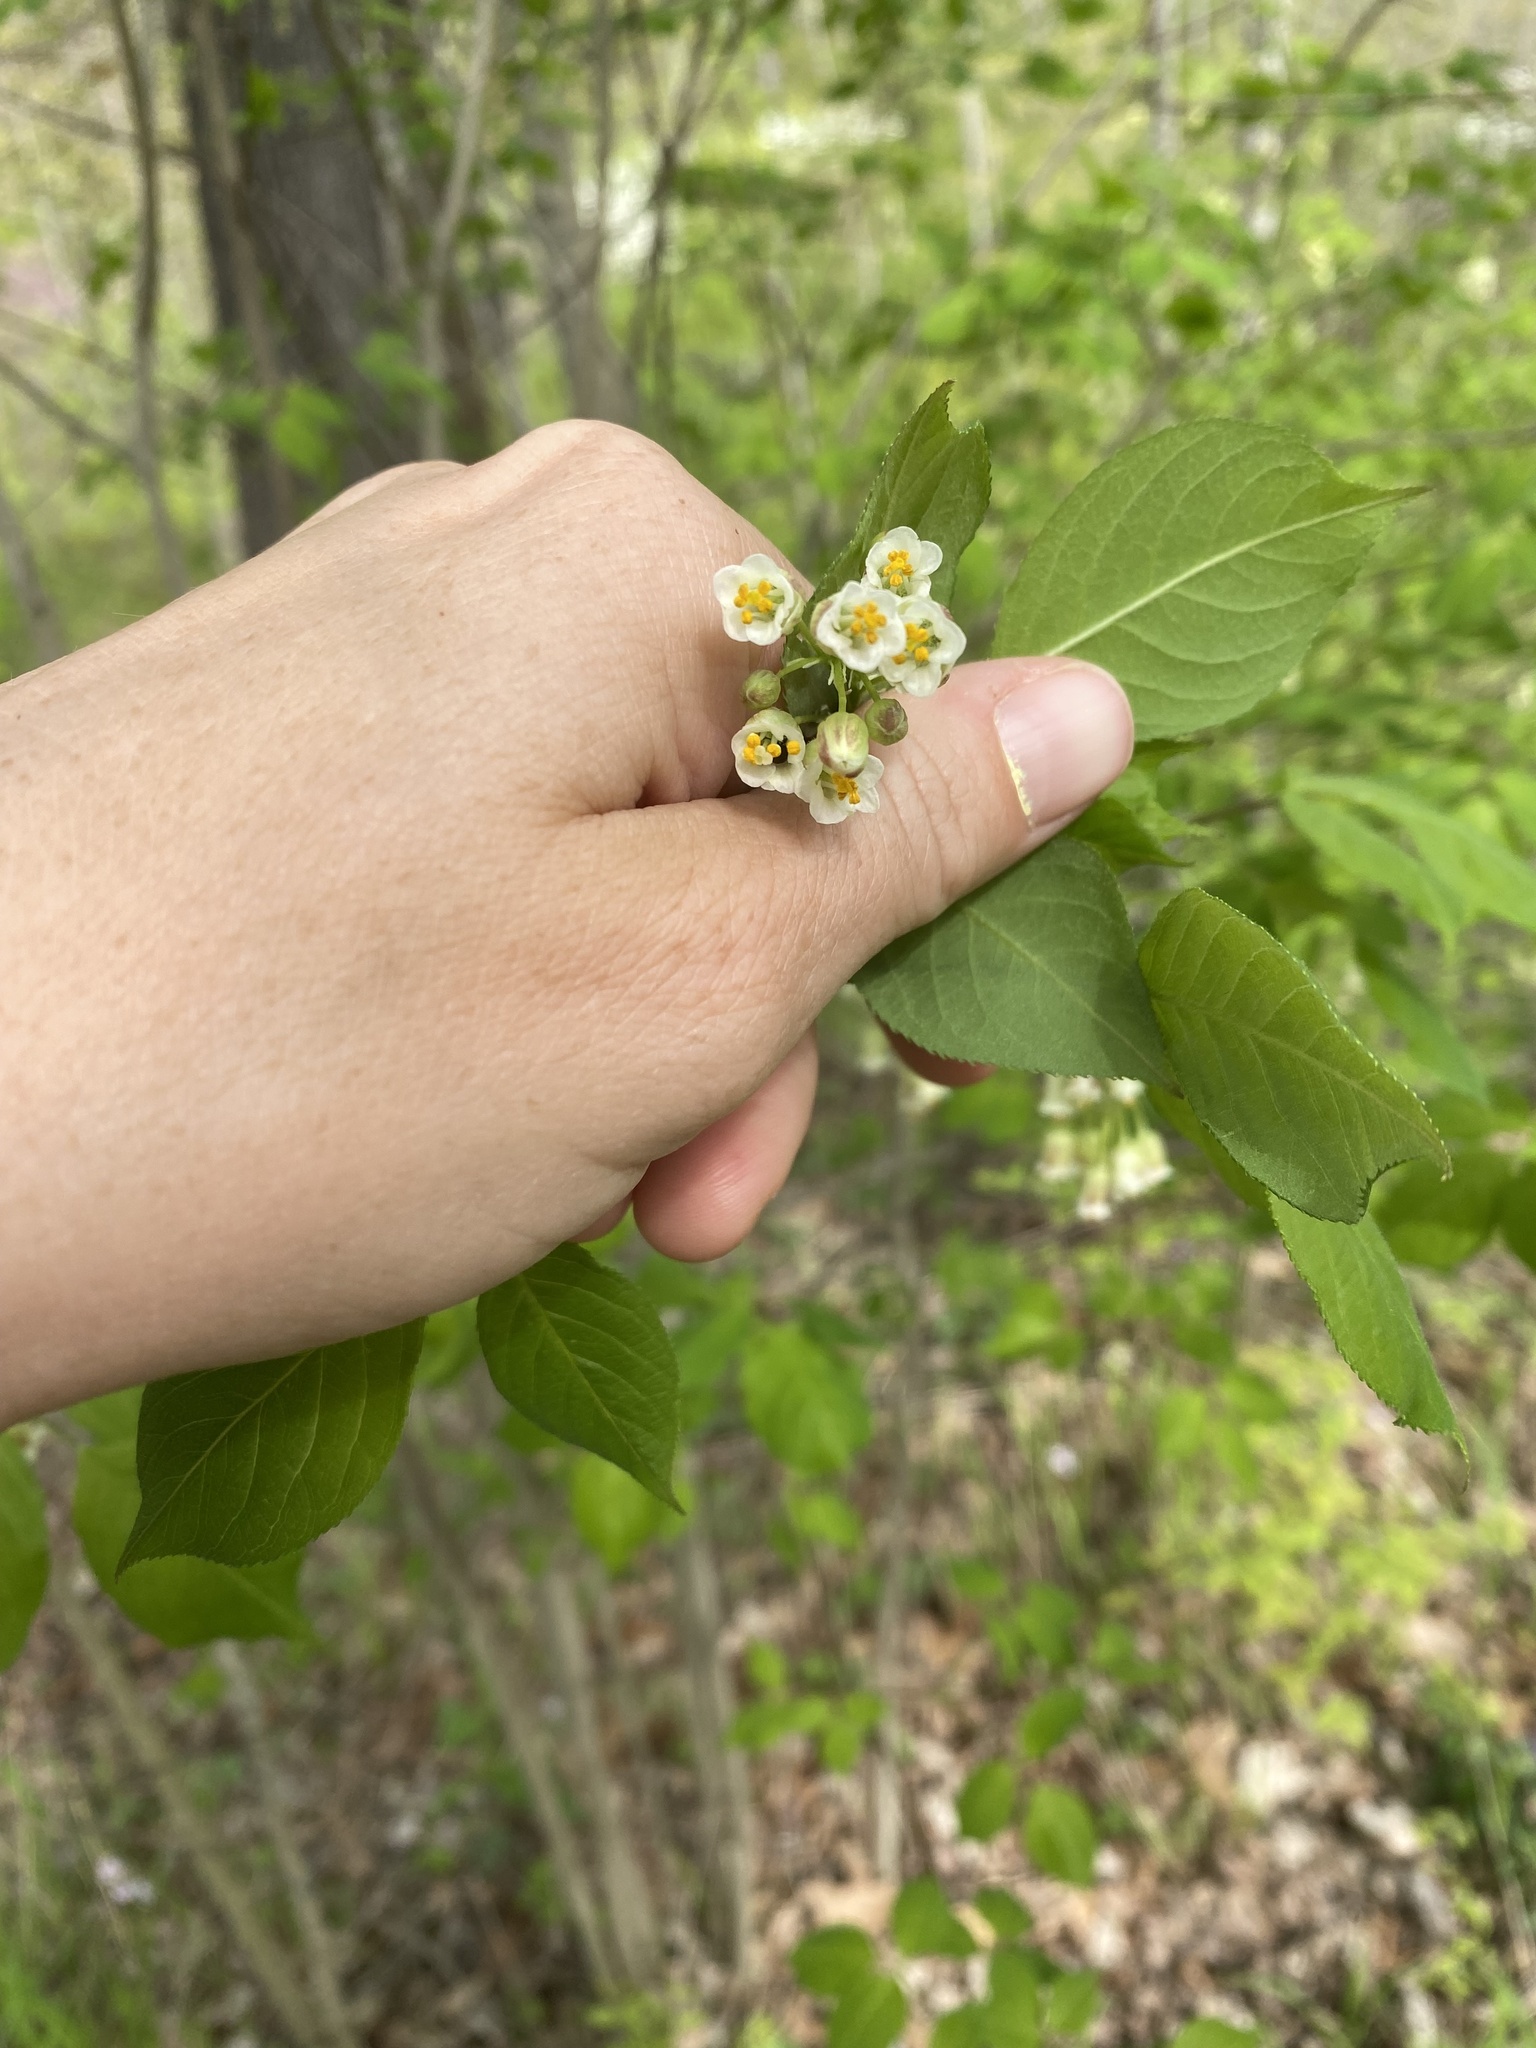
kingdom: Plantae
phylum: Tracheophyta
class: Magnoliopsida
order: Crossosomatales
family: Staphyleaceae
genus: Staphylea
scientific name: Staphylea trifolia
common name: American bladdernut
